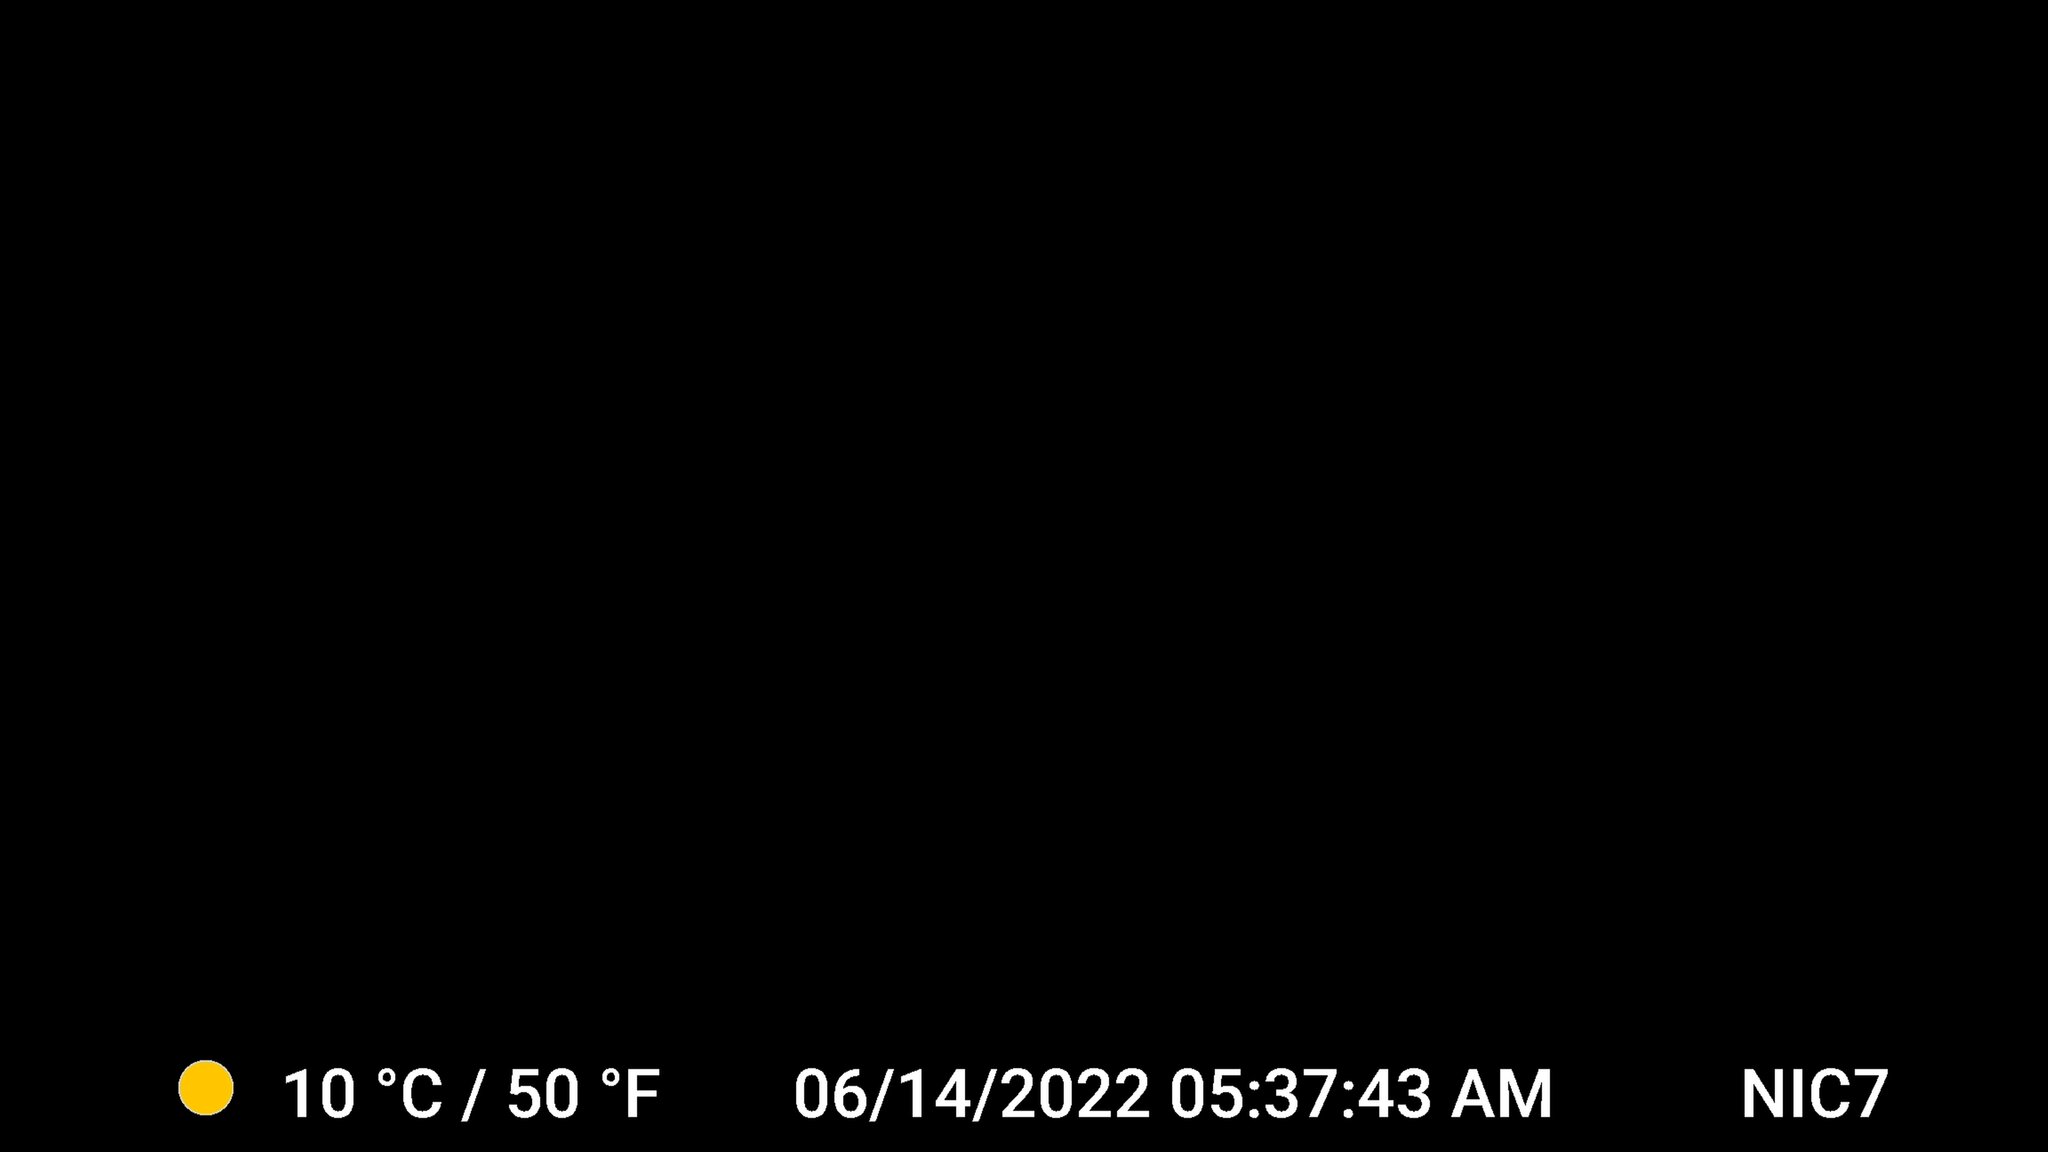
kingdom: Animalia
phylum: Chordata
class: Mammalia
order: Artiodactyla
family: Cervidae
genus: Odocoileus
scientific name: Odocoileus virginianus
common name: White-tailed deer
